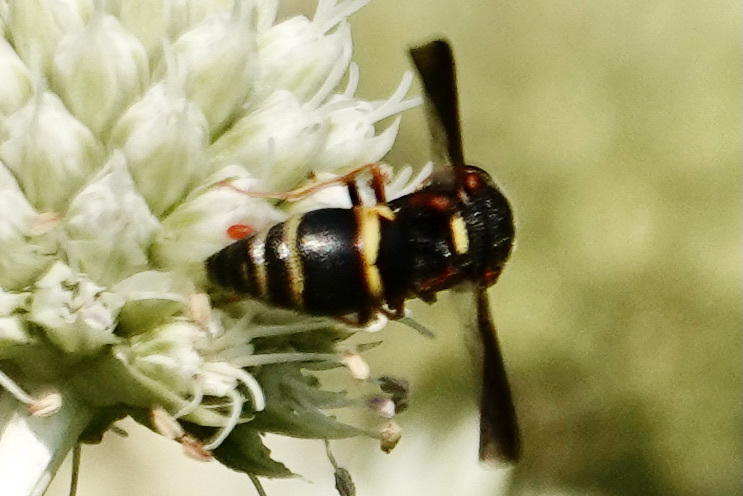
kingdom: Animalia
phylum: Arthropoda
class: Insecta
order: Hymenoptera
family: Eumenidae
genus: Euodynerus
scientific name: Euodynerus hidalgo
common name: Wasp
